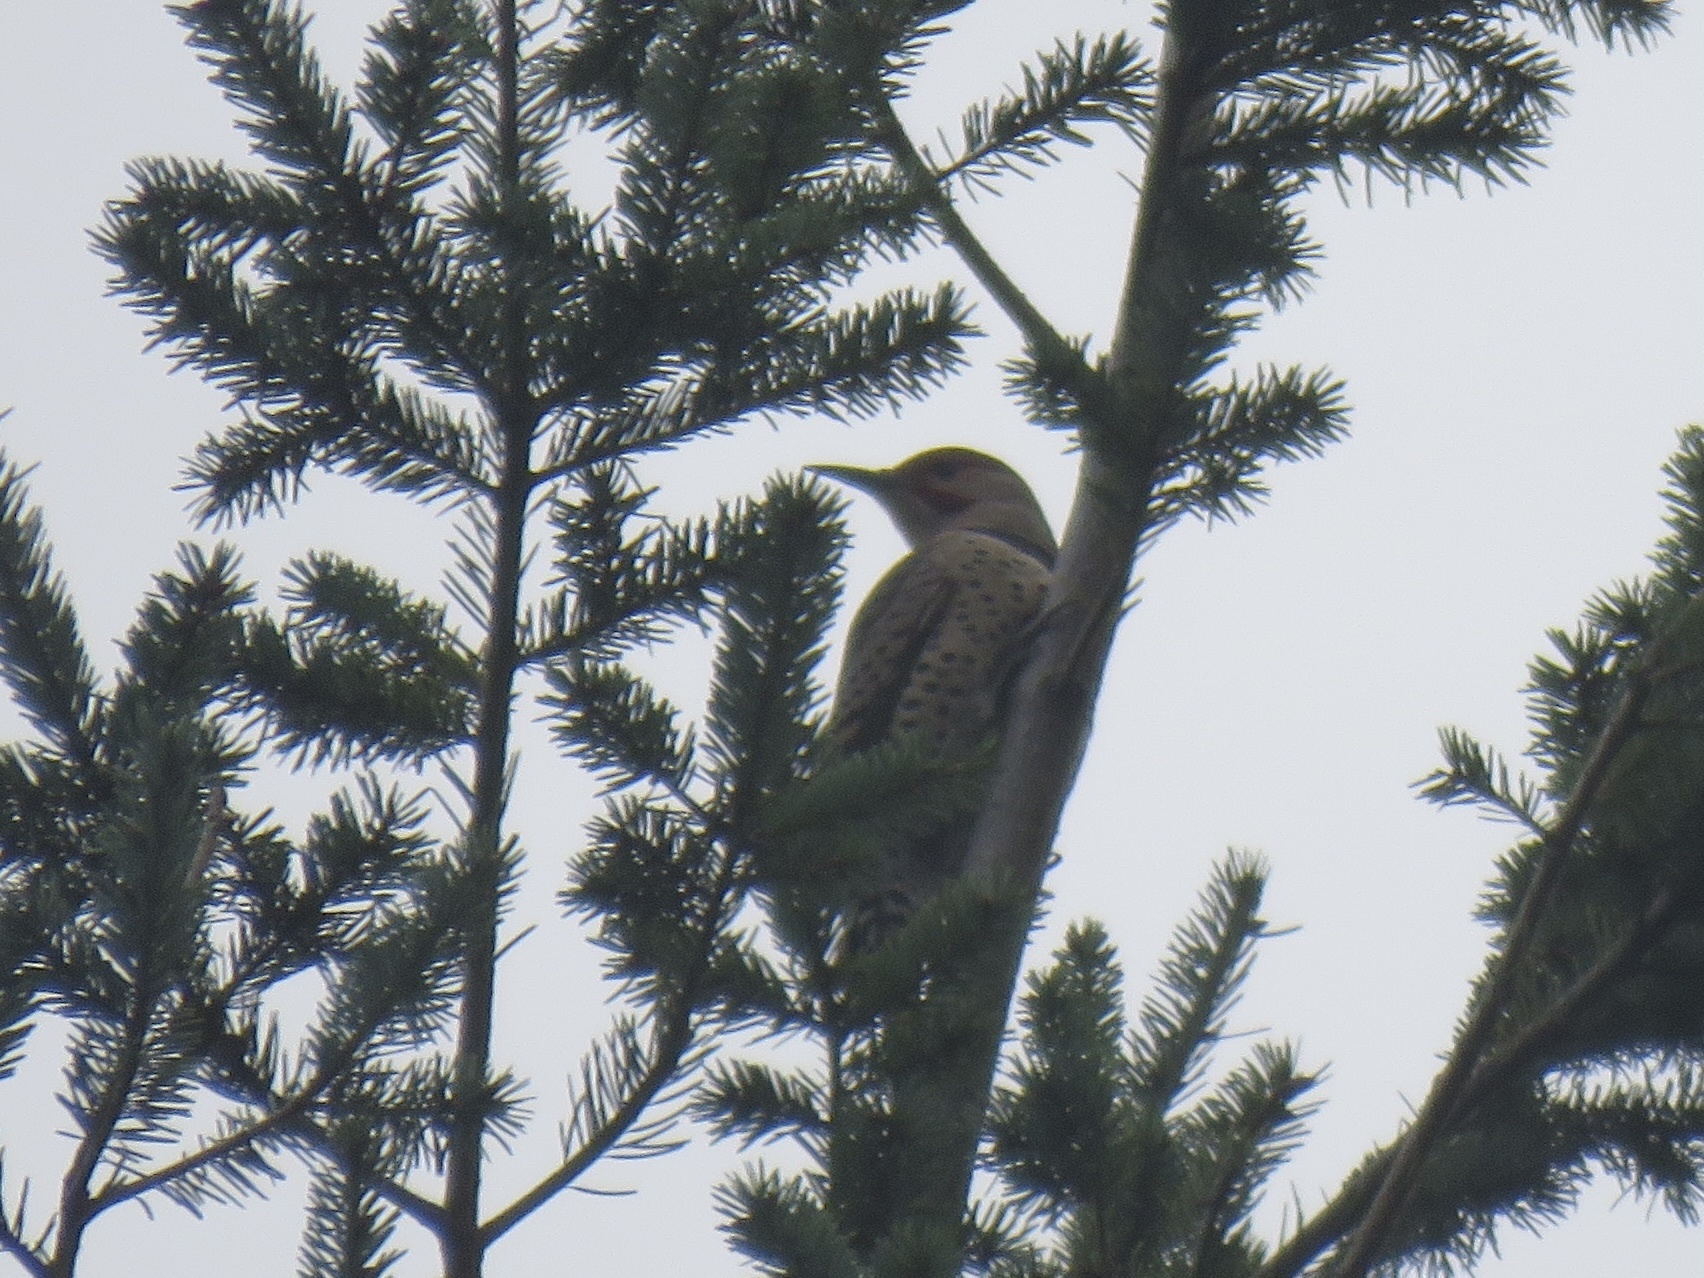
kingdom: Animalia
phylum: Chordata
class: Aves
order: Piciformes
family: Picidae
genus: Colaptes
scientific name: Colaptes auratus
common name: Northern flicker
